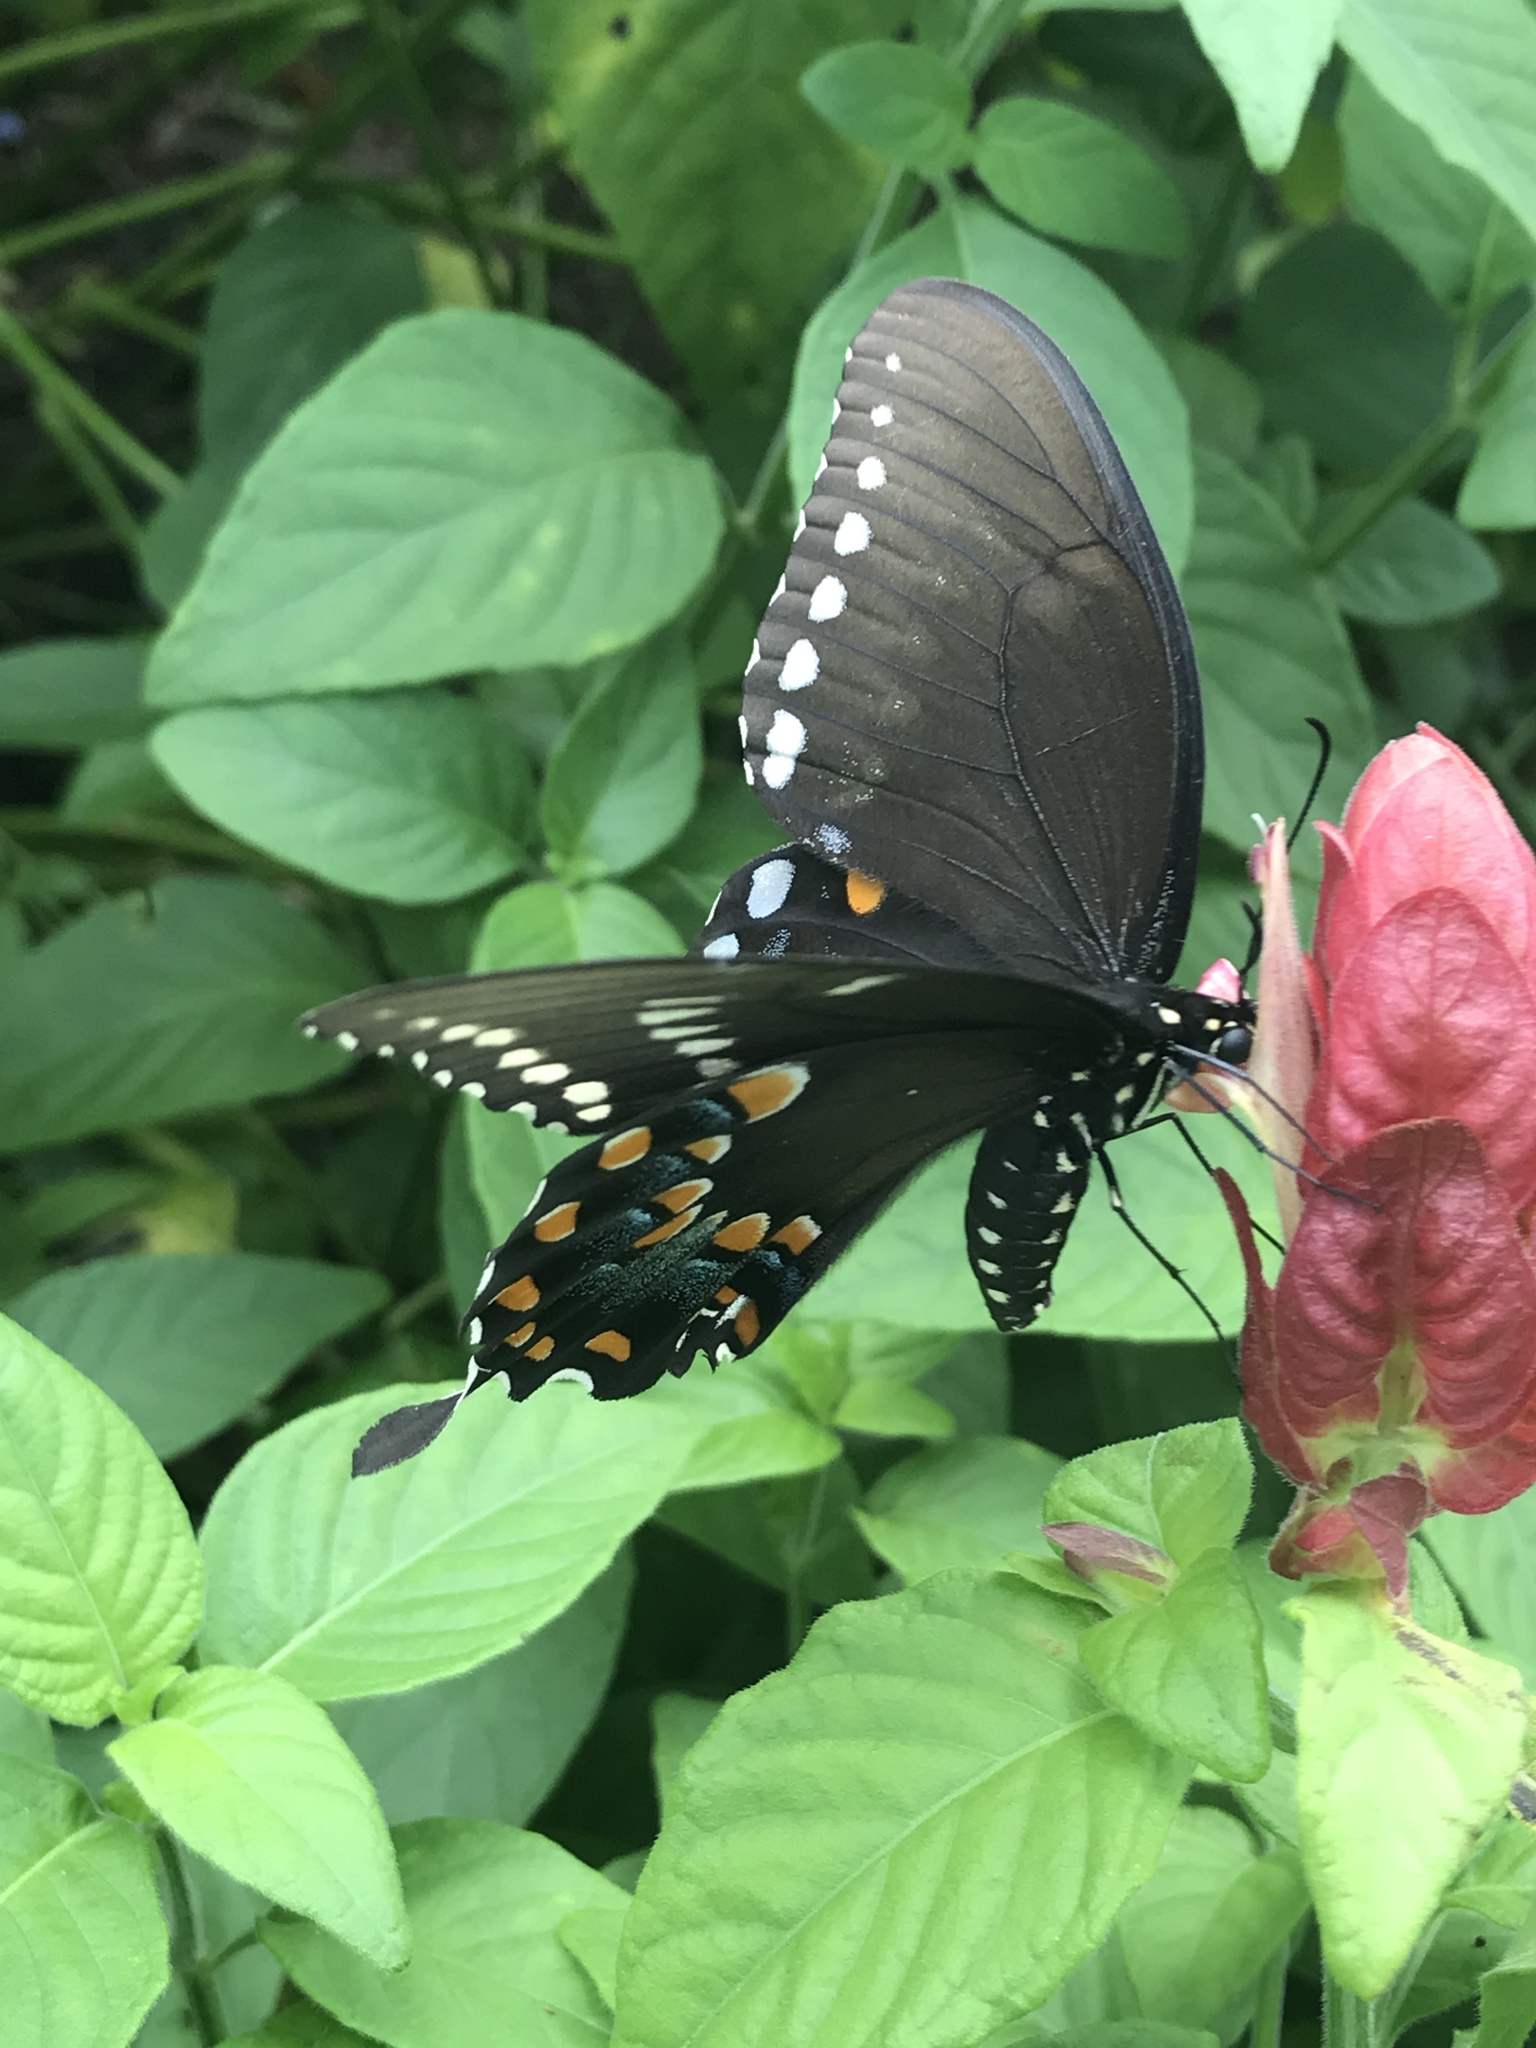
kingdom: Animalia
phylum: Arthropoda
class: Insecta
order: Lepidoptera
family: Papilionidae
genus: Papilio
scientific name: Papilio troilus
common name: Spicebush swallowtail
